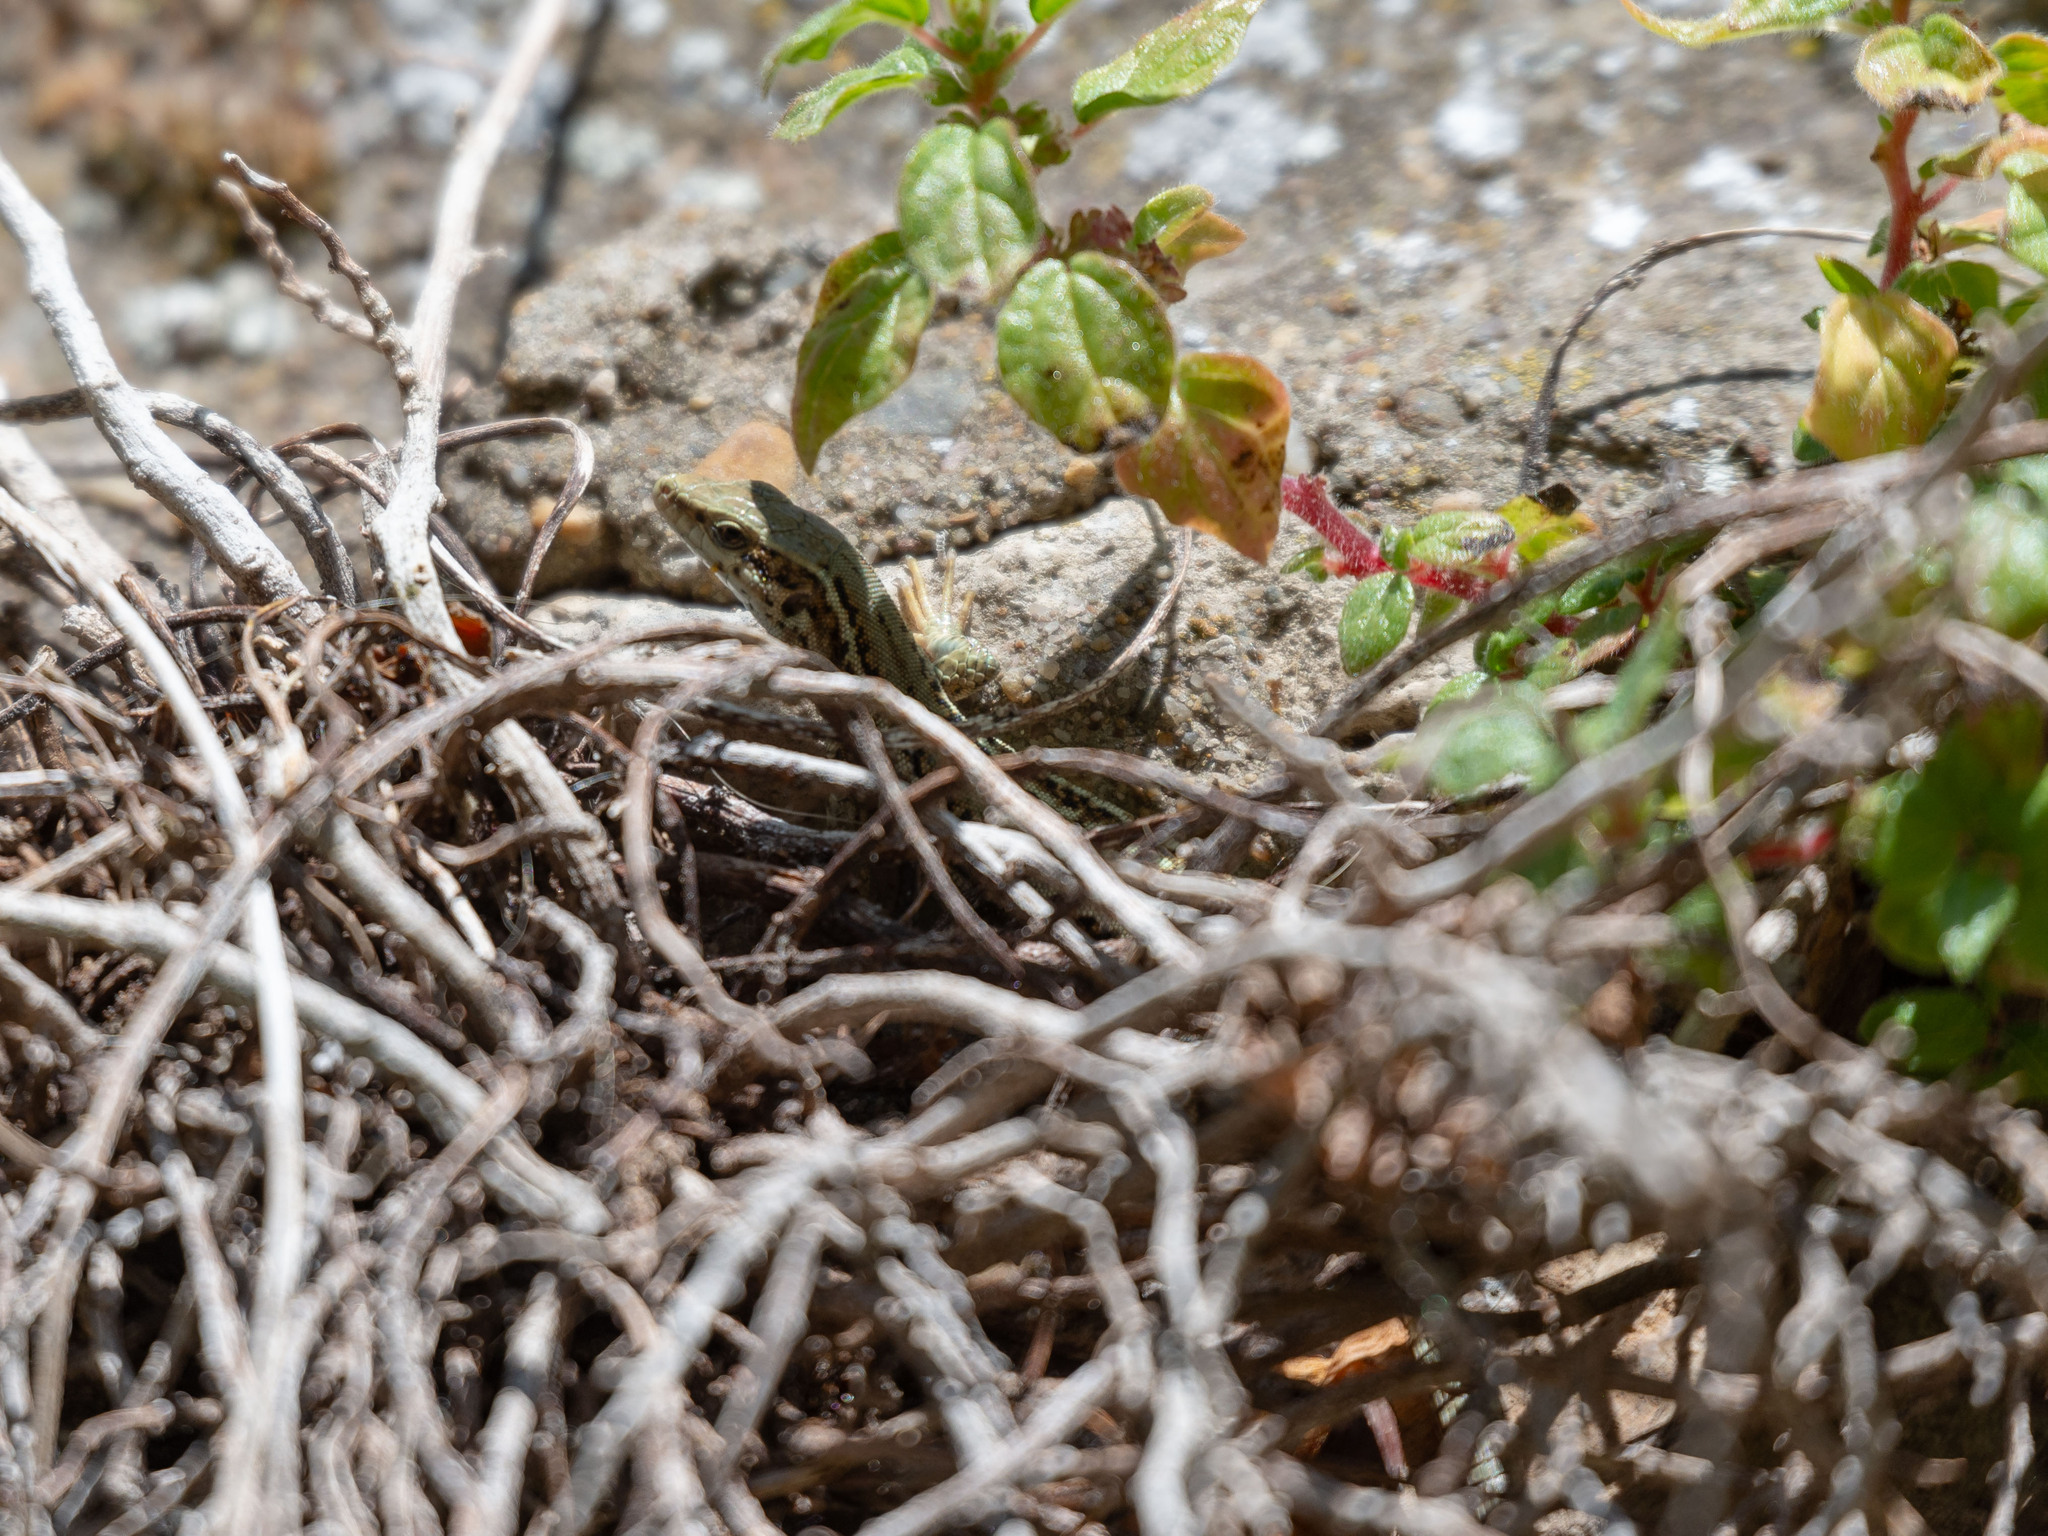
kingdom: Animalia
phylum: Chordata
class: Squamata
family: Lacertidae
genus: Podarcis
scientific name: Podarcis liolepis
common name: Catalonian wall lizard
